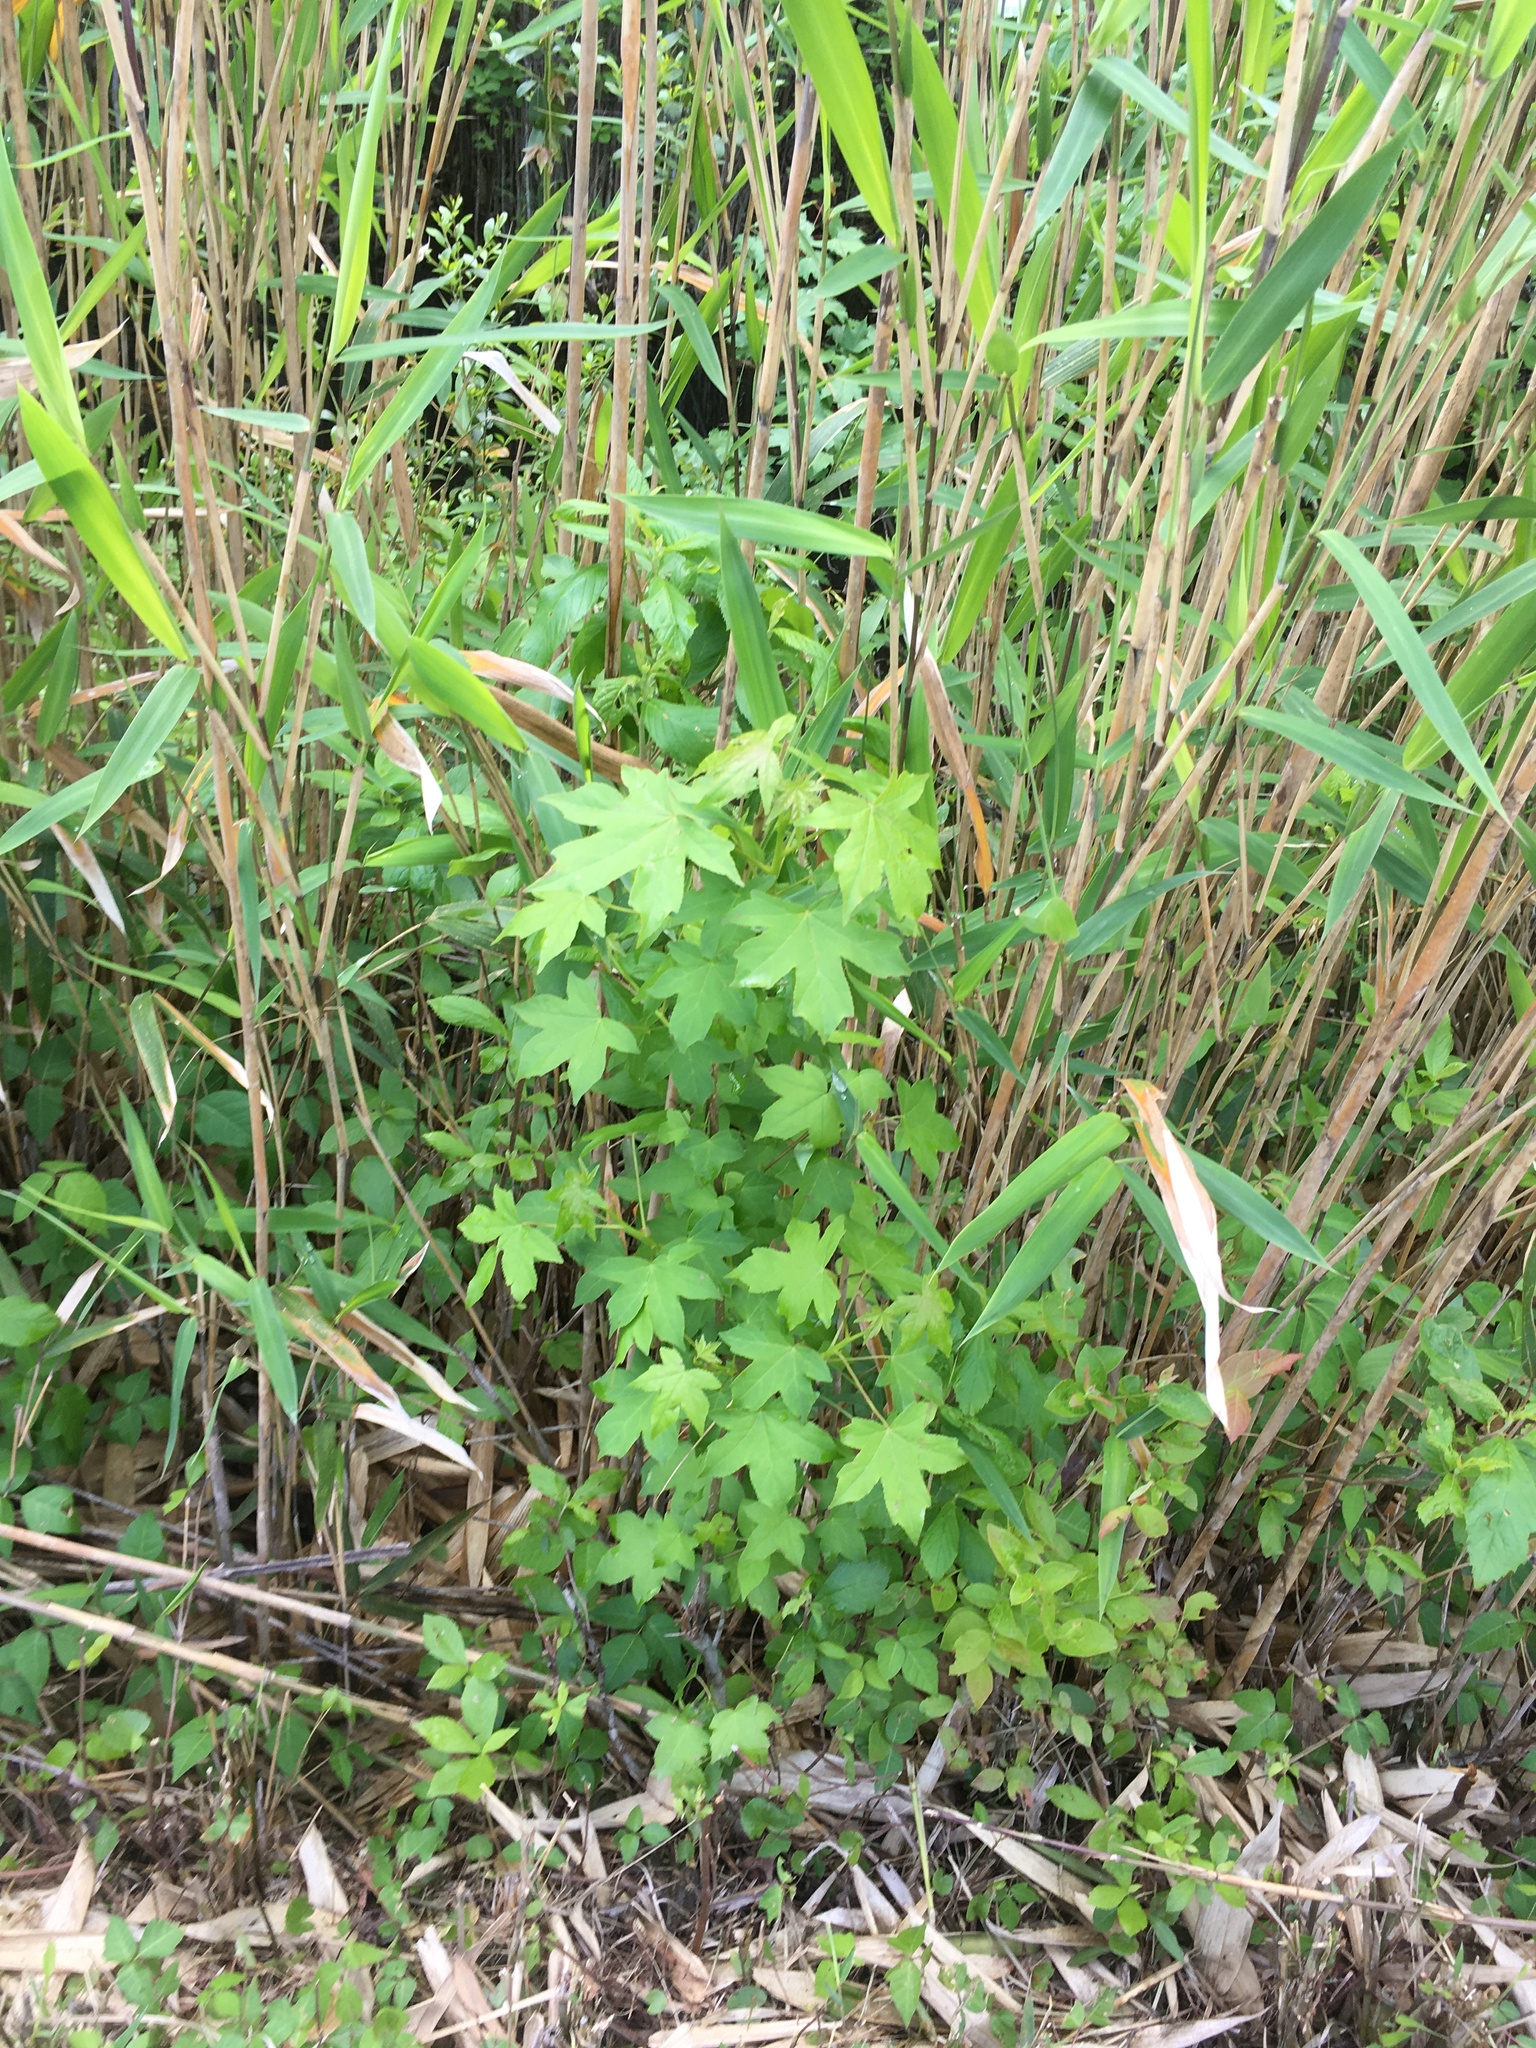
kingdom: Plantae
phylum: Tracheophyta
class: Magnoliopsida
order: Saxifragales
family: Altingiaceae
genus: Liquidambar
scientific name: Liquidambar styraciflua
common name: Sweet gum
